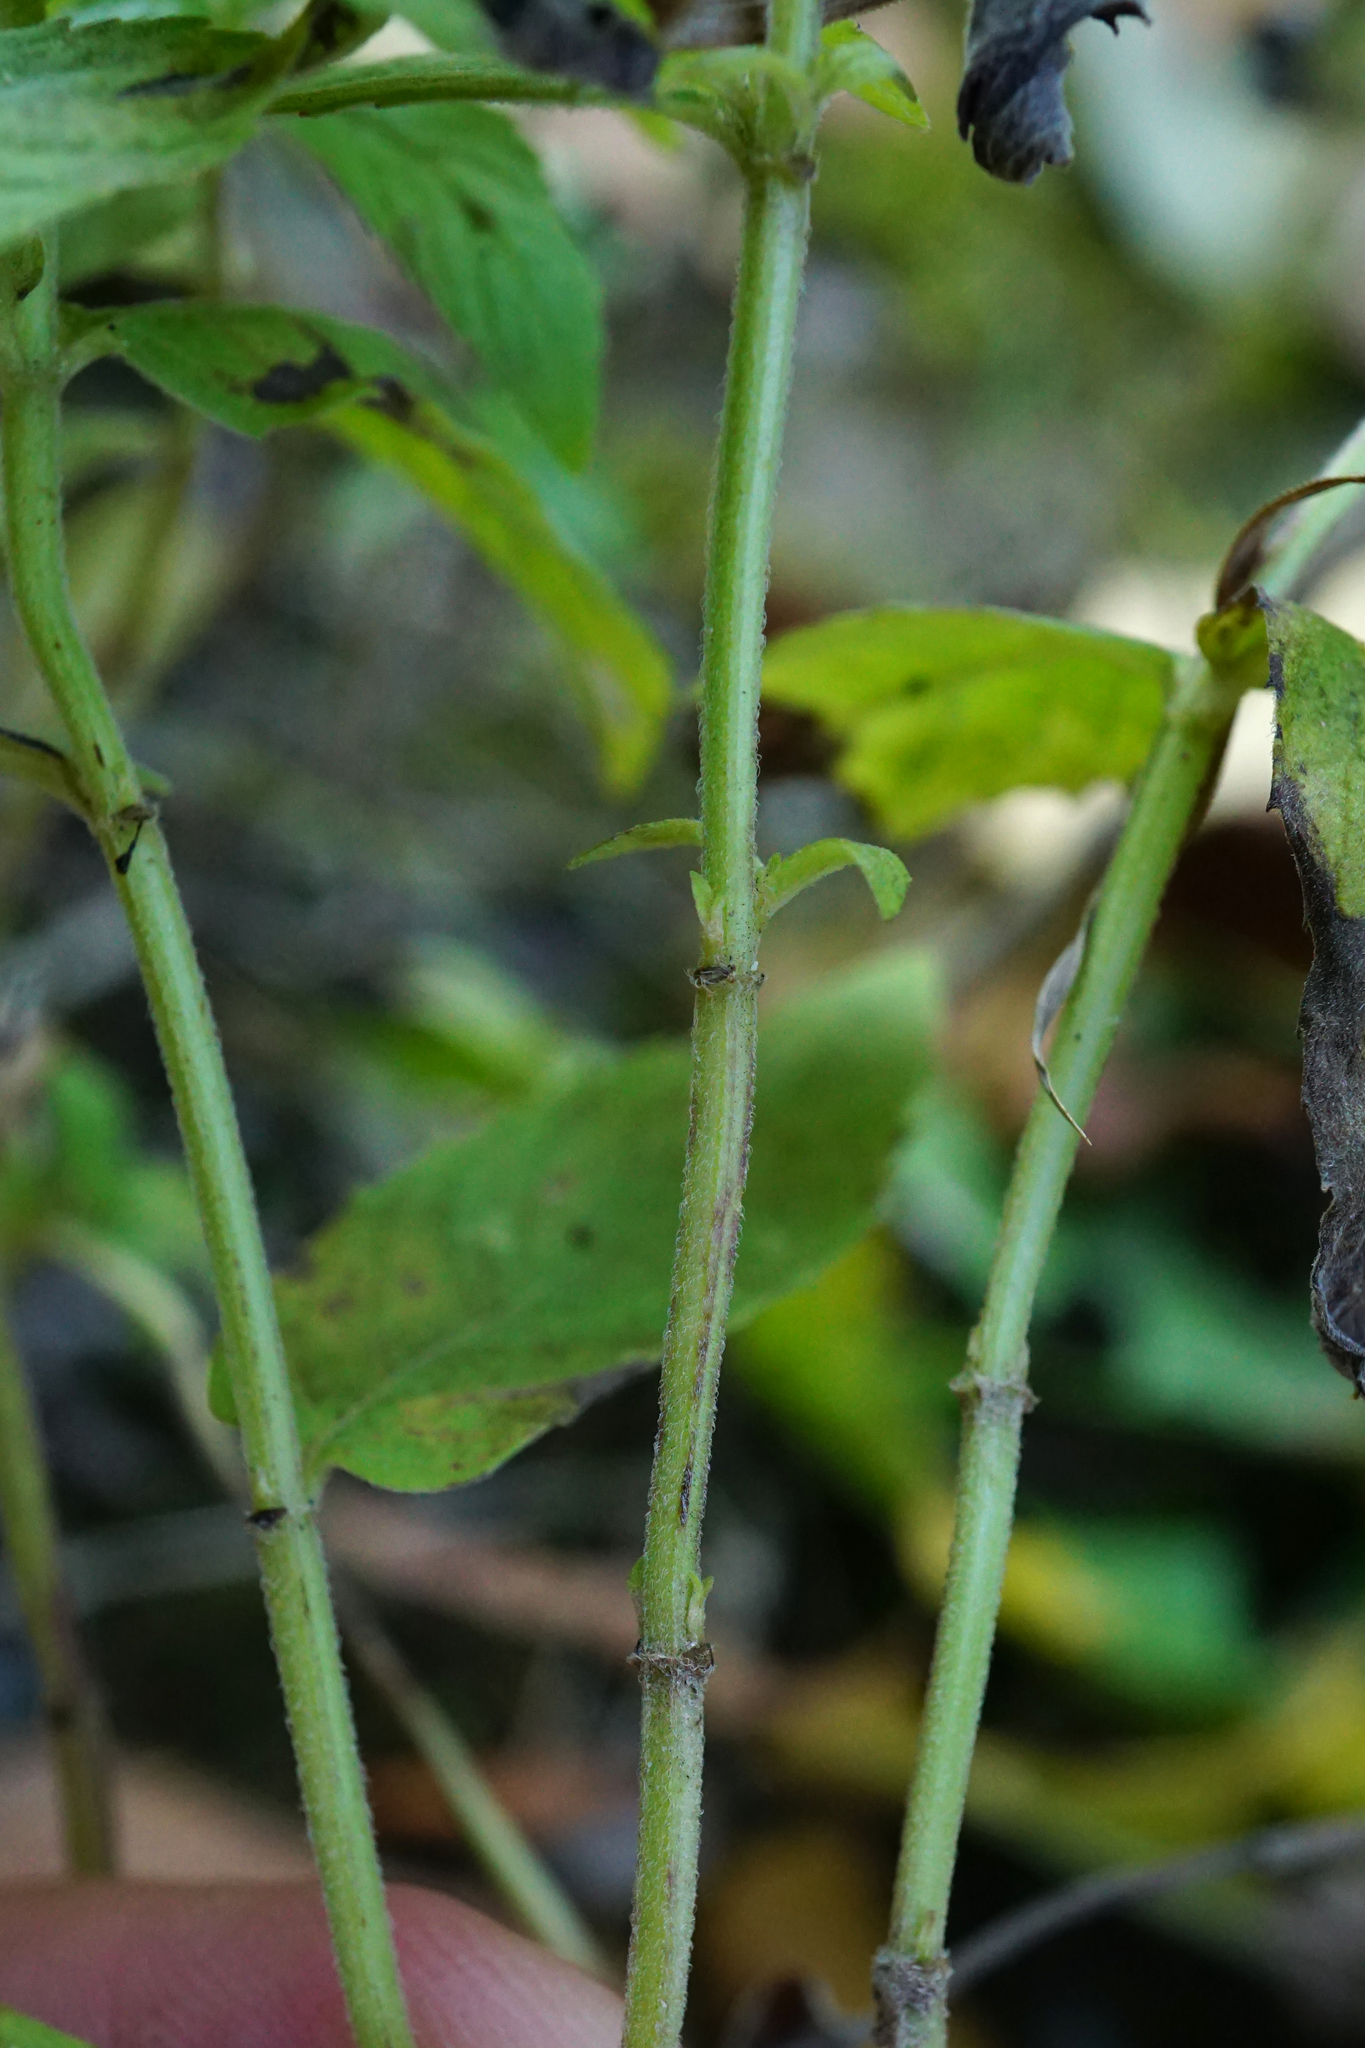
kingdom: Plantae
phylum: Tracheophyta
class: Magnoliopsida
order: Lamiales
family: Lamiaceae
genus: Mentha
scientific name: Mentha longifolia
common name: Horse mint
